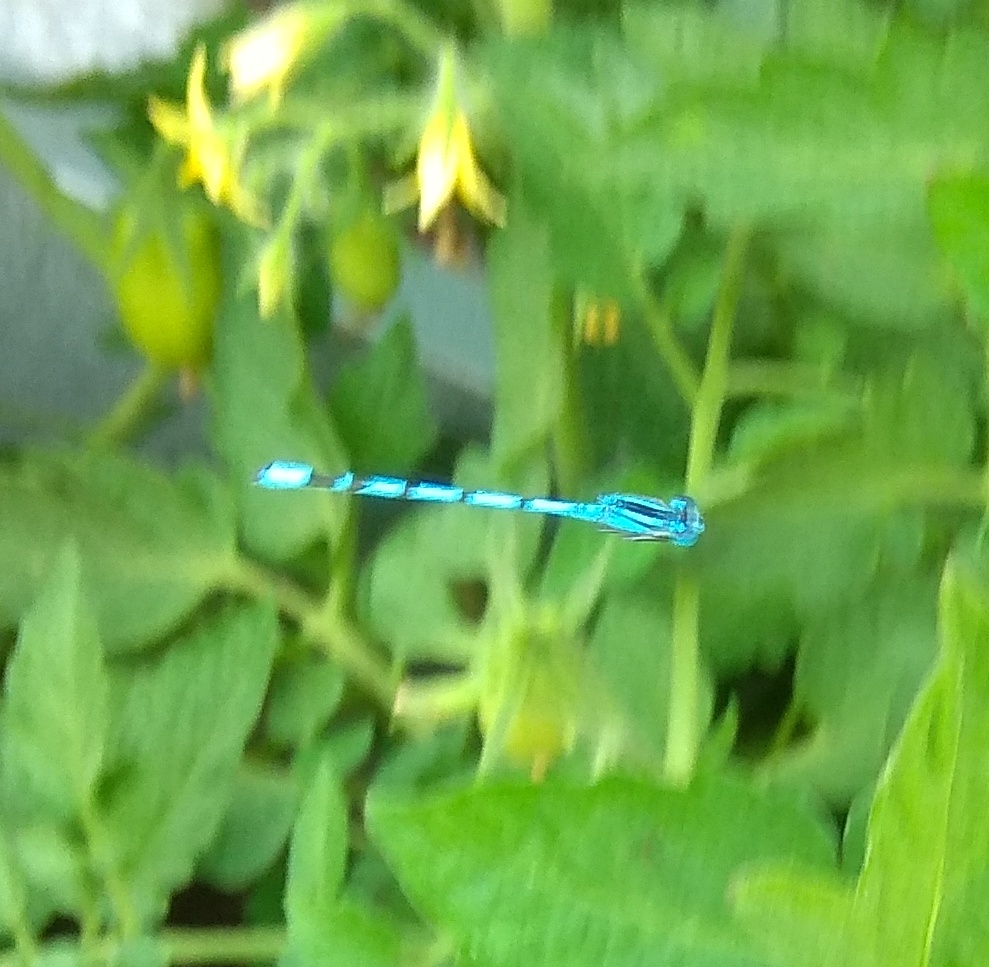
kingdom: Animalia
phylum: Arthropoda
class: Insecta
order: Odonata
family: Coenagrionidae
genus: Enallagma
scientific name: Enallagma cyathigerum
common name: Common blue damselfly
